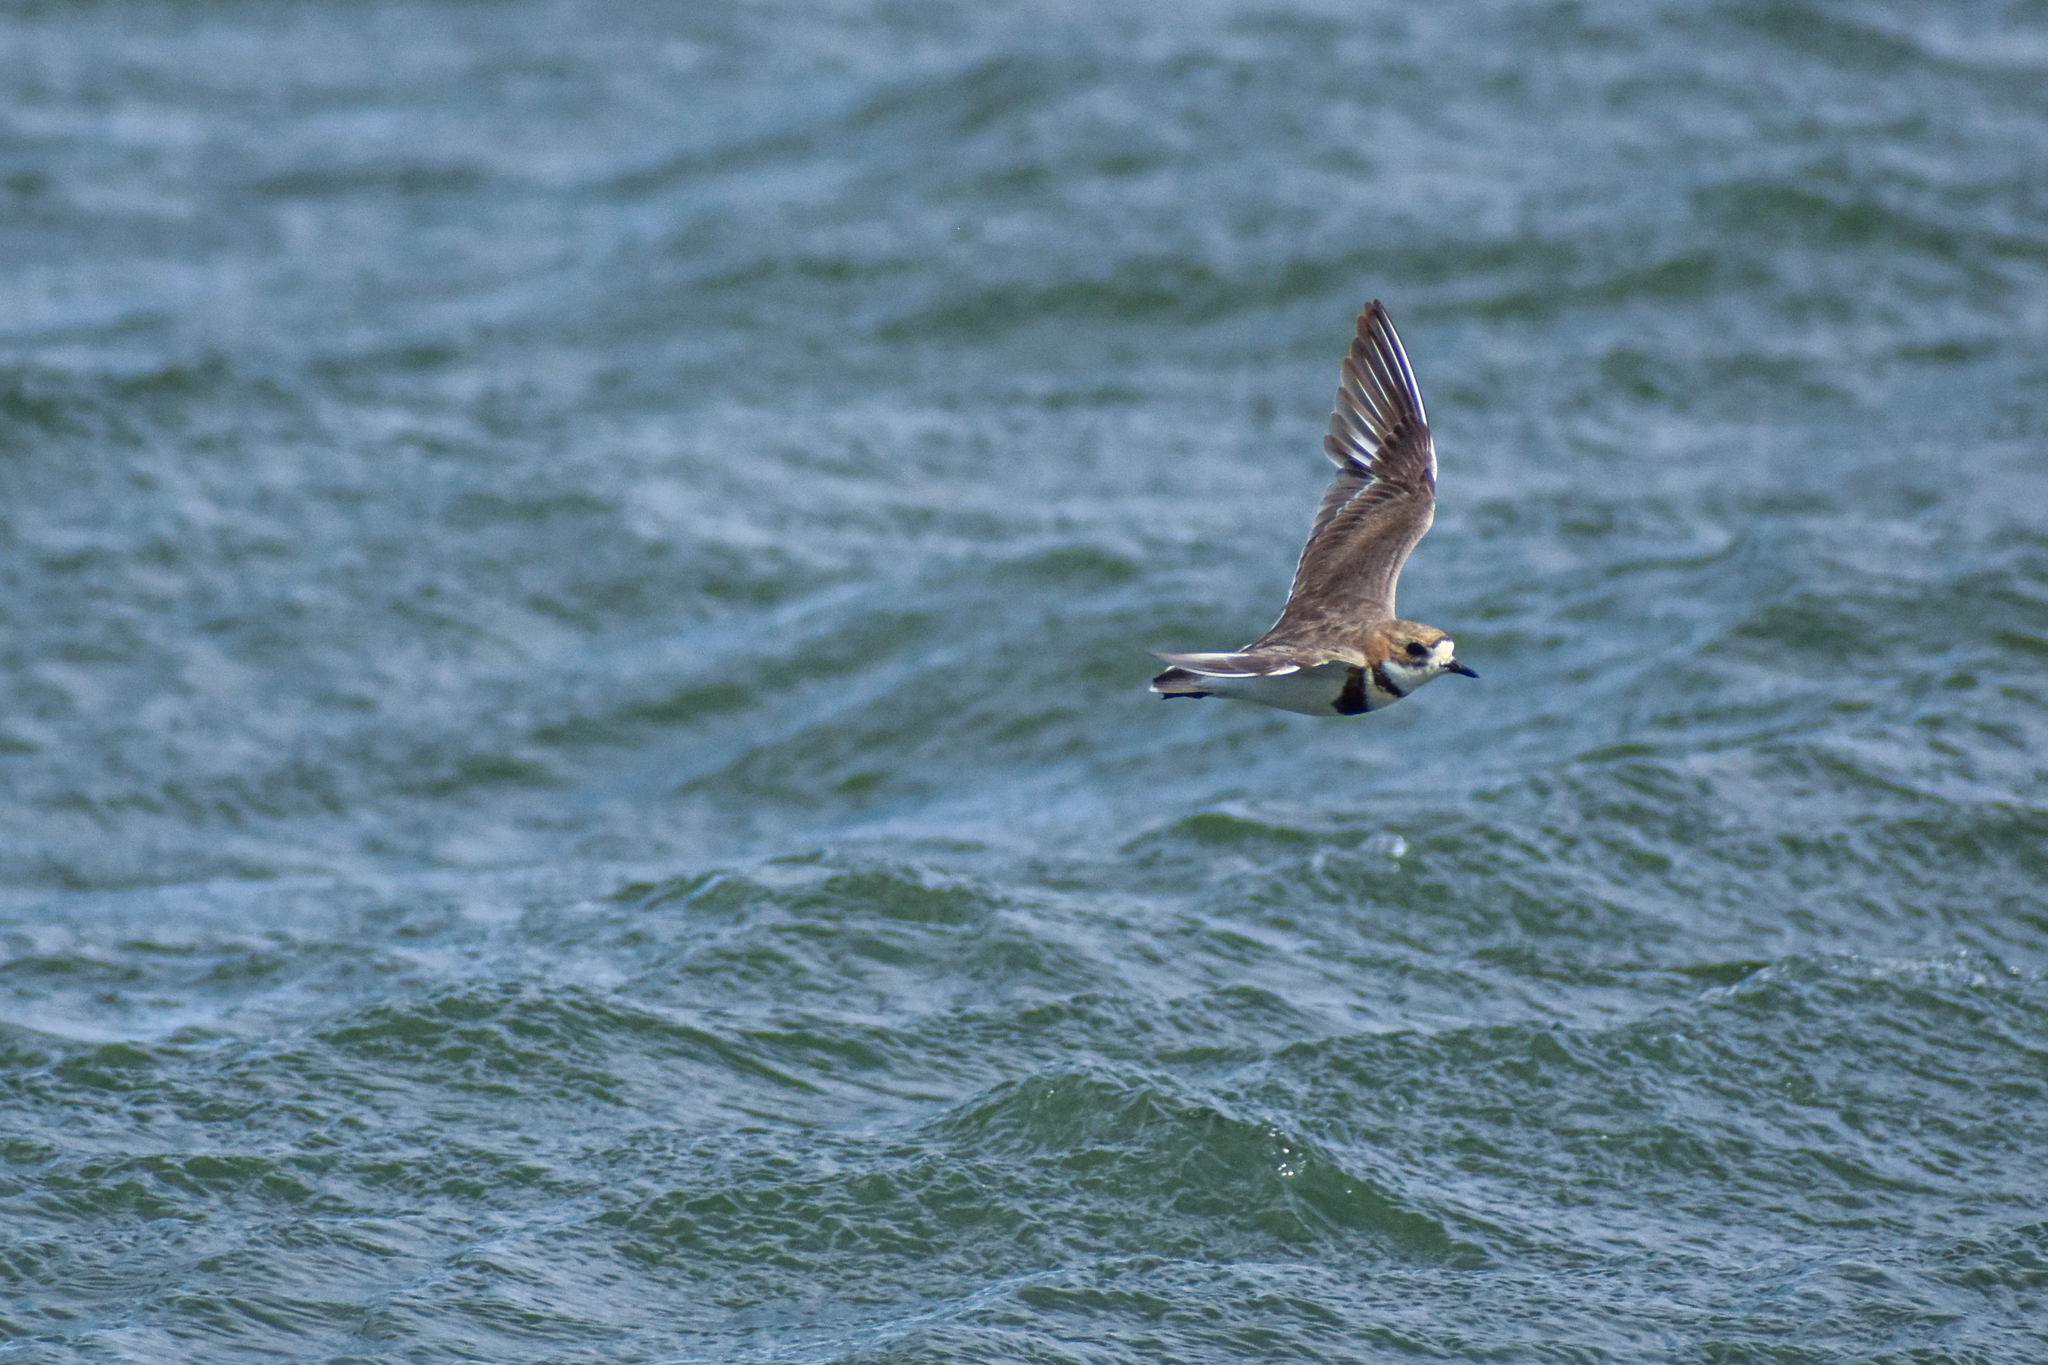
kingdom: Animalia
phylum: Chordata
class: Aves
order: Charadriiformes
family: Charadriidae
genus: Anarhynchus
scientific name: Anarhynchus
